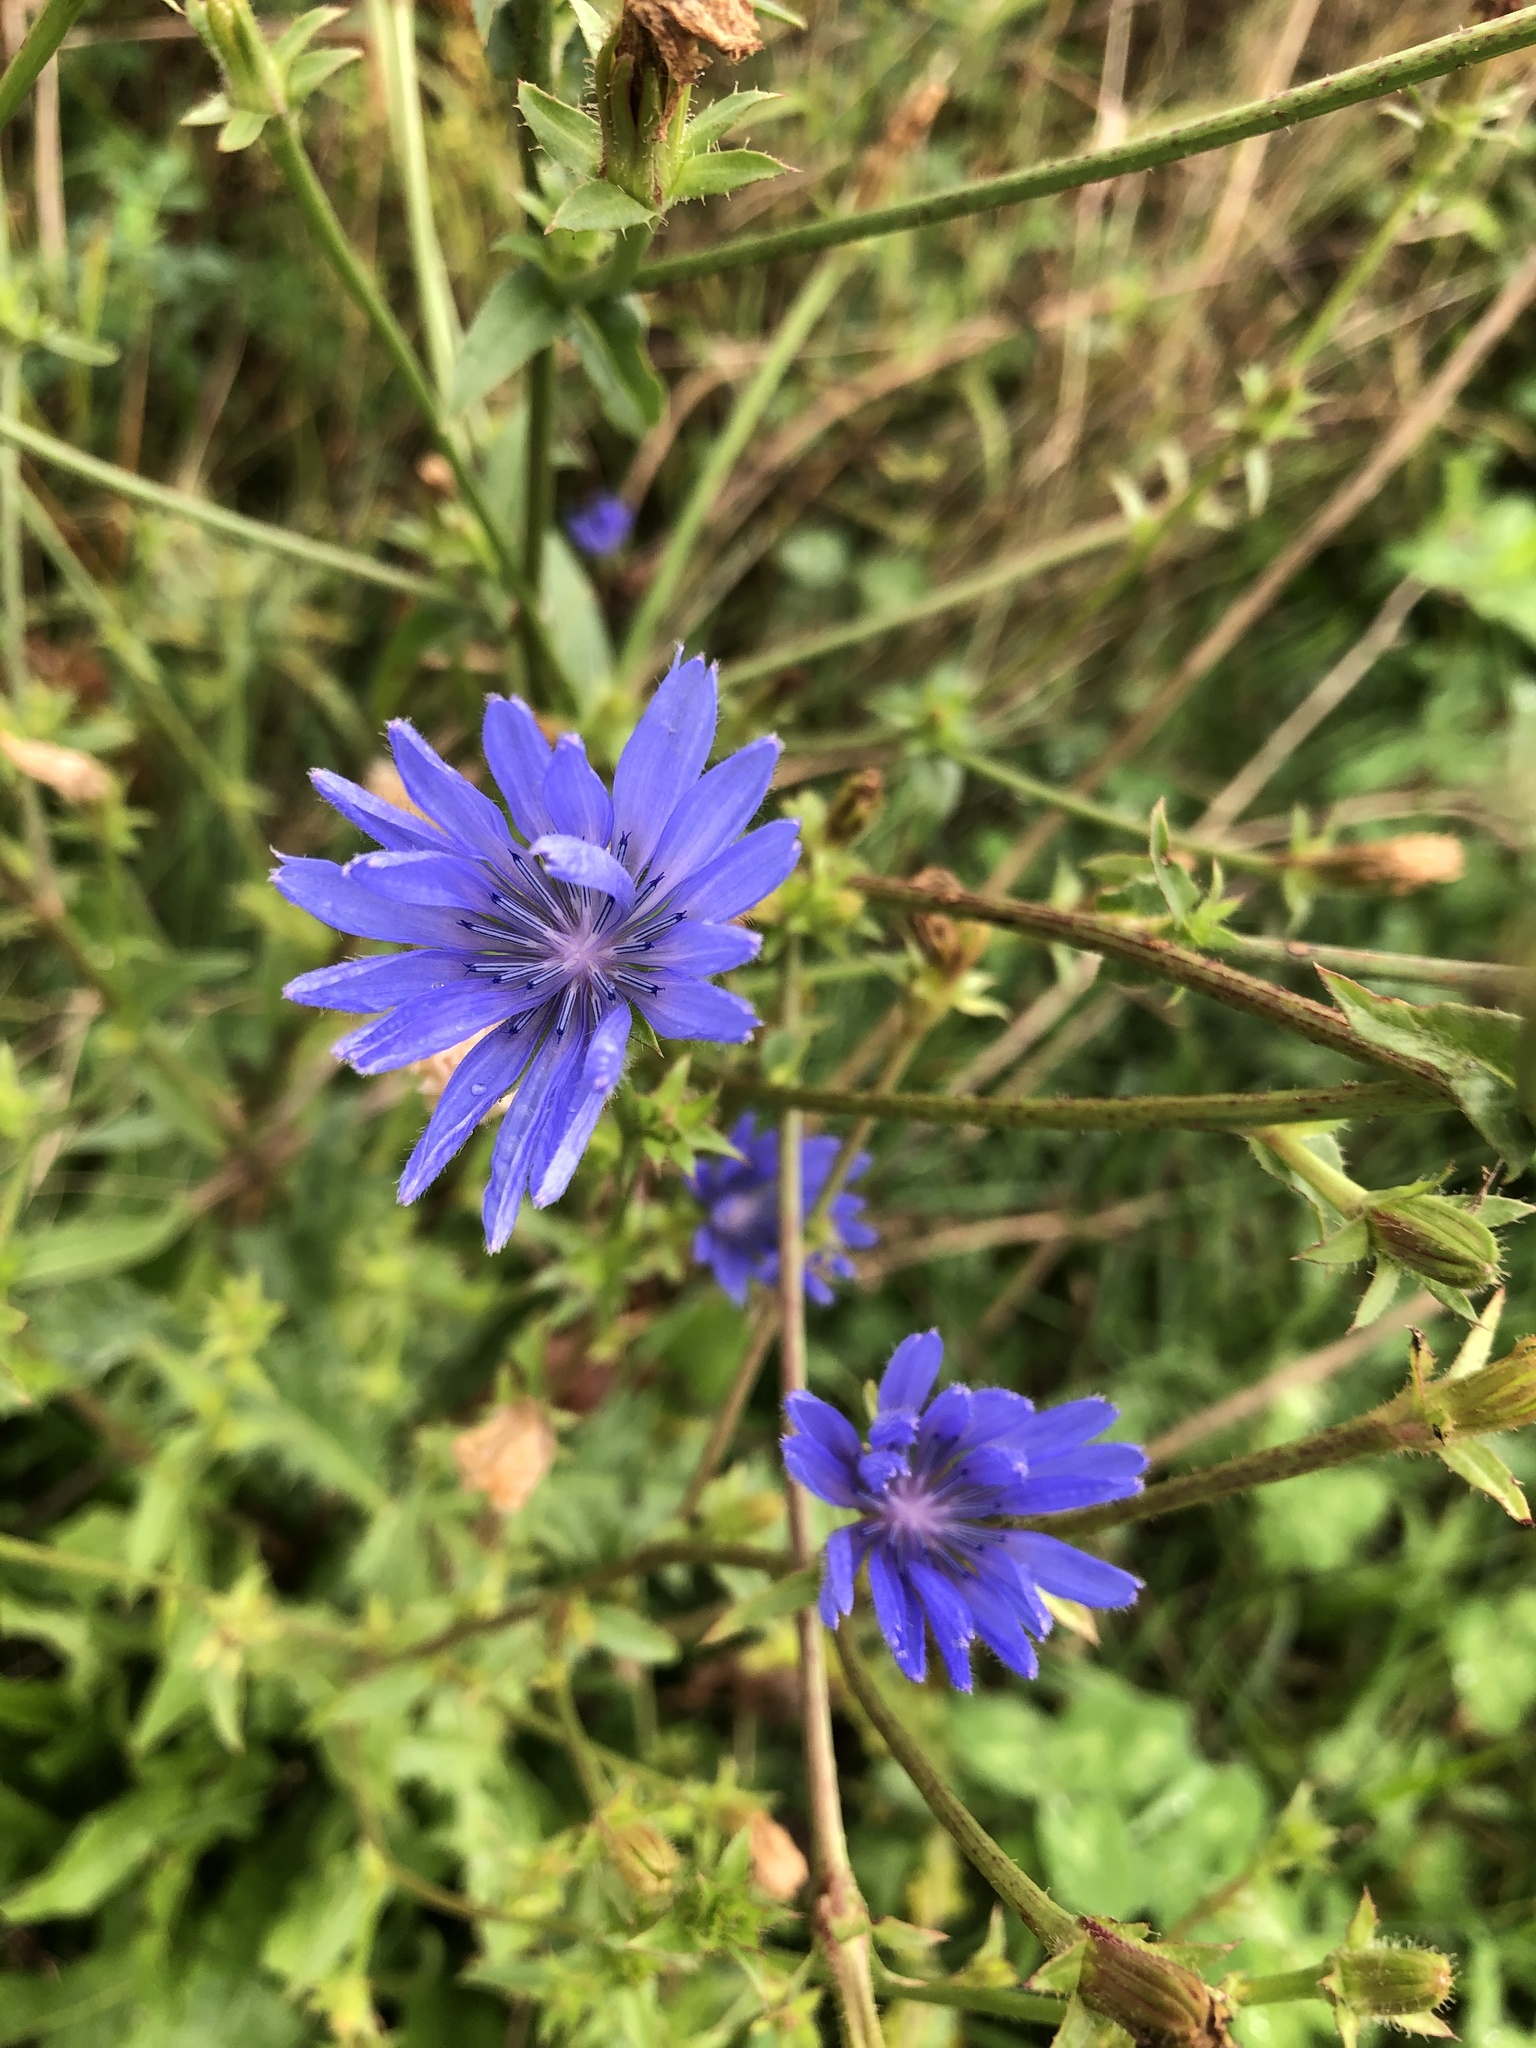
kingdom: Plantae
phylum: Tracheophyta
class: Magnoliopsida
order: Asterales
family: Asteraceae
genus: Cichorium
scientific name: Cichorium intybus
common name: Chicory
